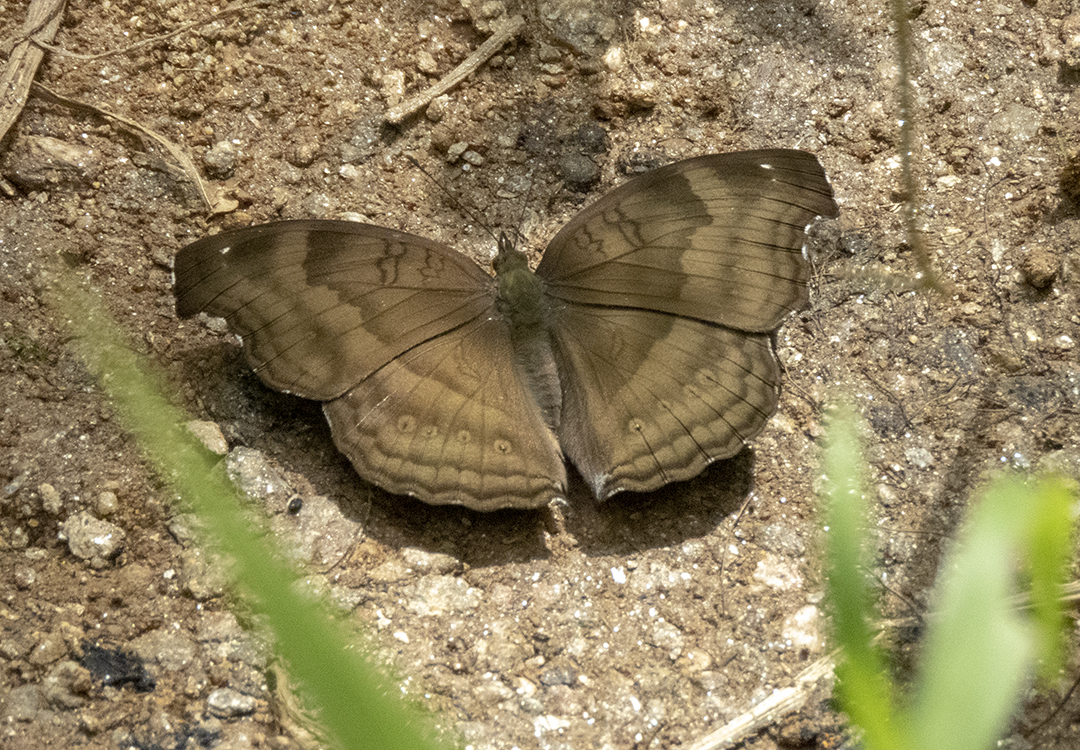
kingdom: Animalia
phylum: Arthropoda
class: Insecta
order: Lepidoptera
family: Nymphalidae
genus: Junonia
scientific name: Junonia iphita
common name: Chocolate pansy
